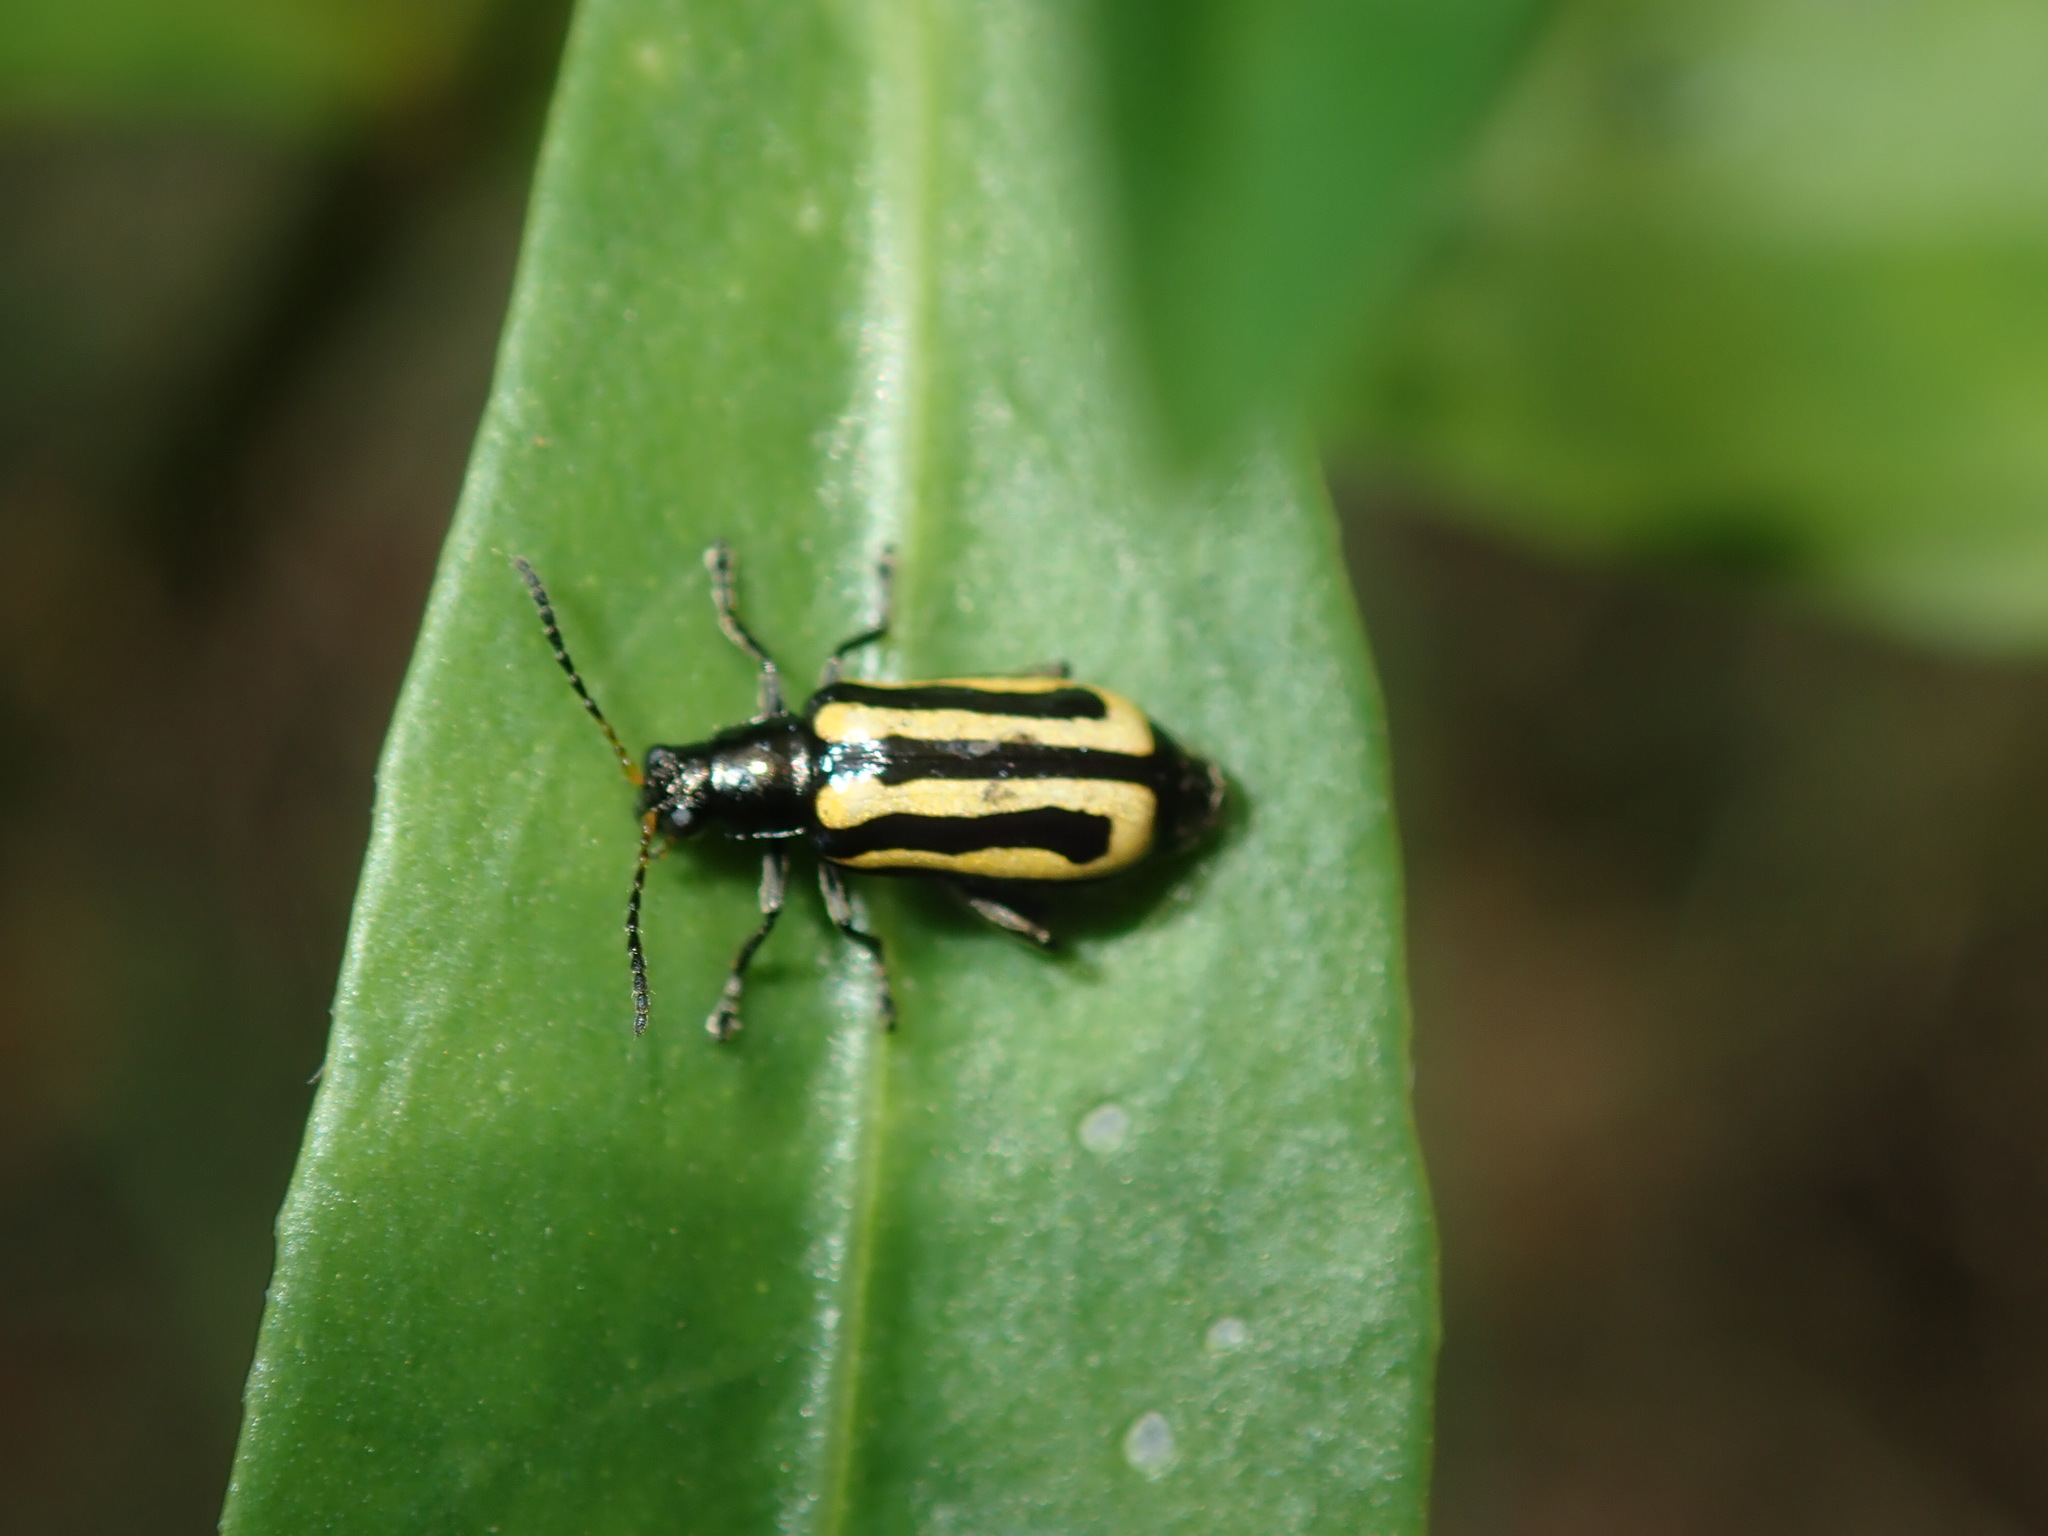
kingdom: Animalia
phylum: Arthropoda
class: Insecta
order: Coleoptera
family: Chrysomelidae
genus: Agasicles
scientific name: Agasicles hygrophila
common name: Alligatorweed flea beetle
